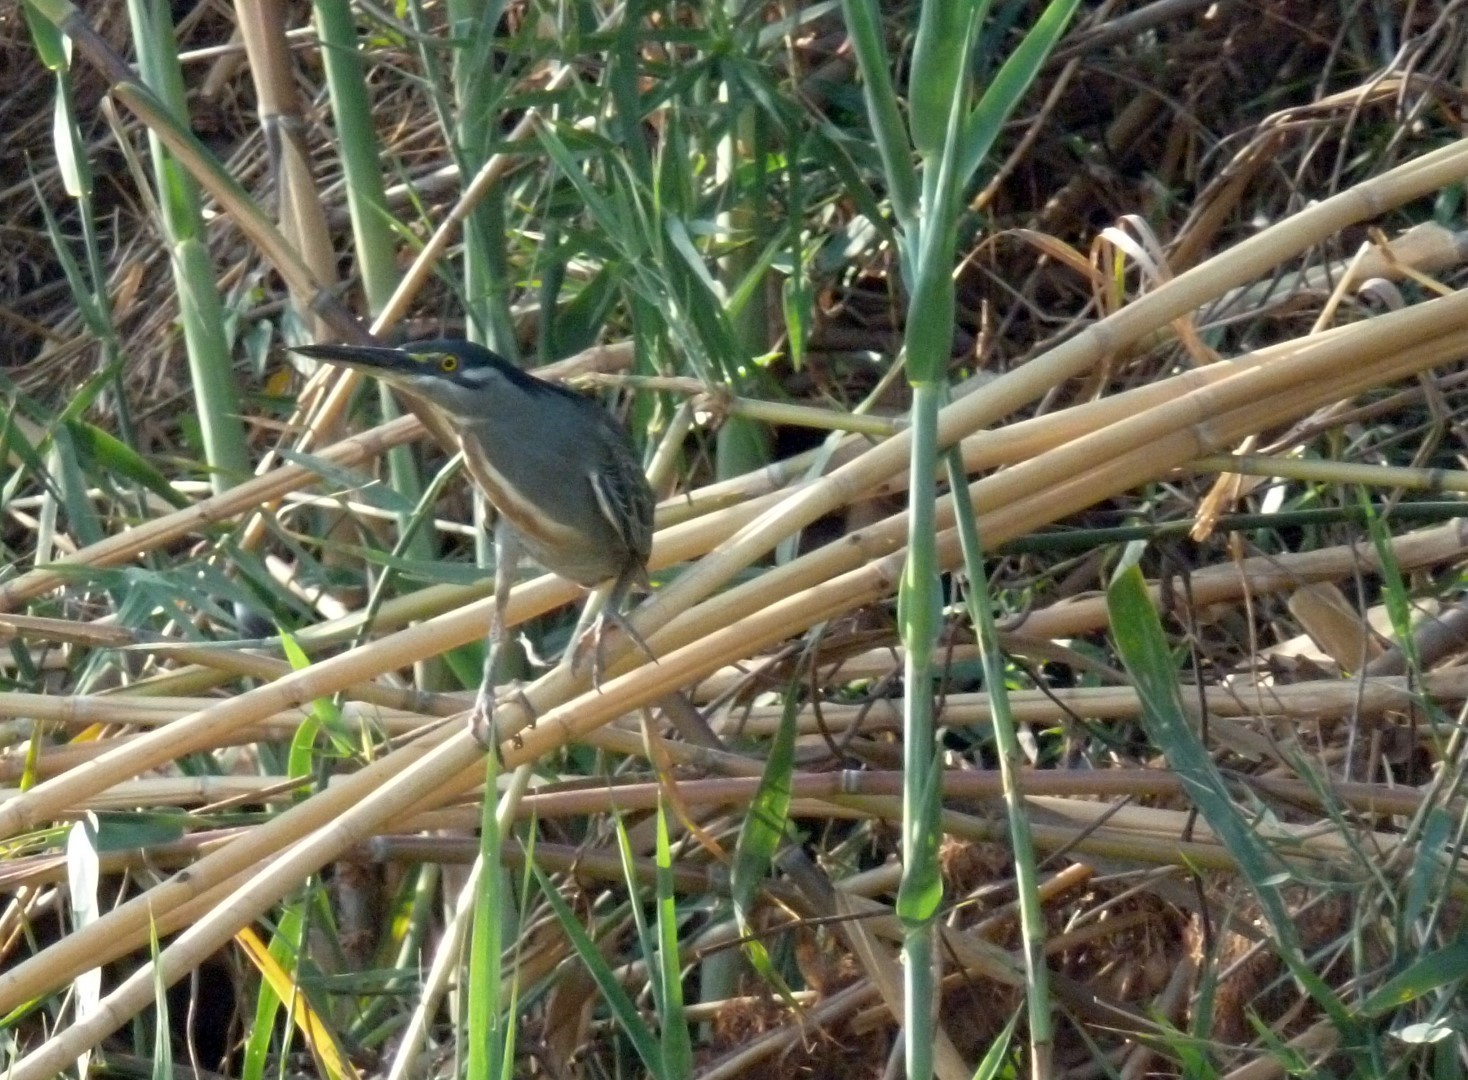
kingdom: Animalia
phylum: Chordata
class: Aves
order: Pelecaniformes
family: Ardeidae
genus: Butorides
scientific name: Butorides striata
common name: Striated heron
